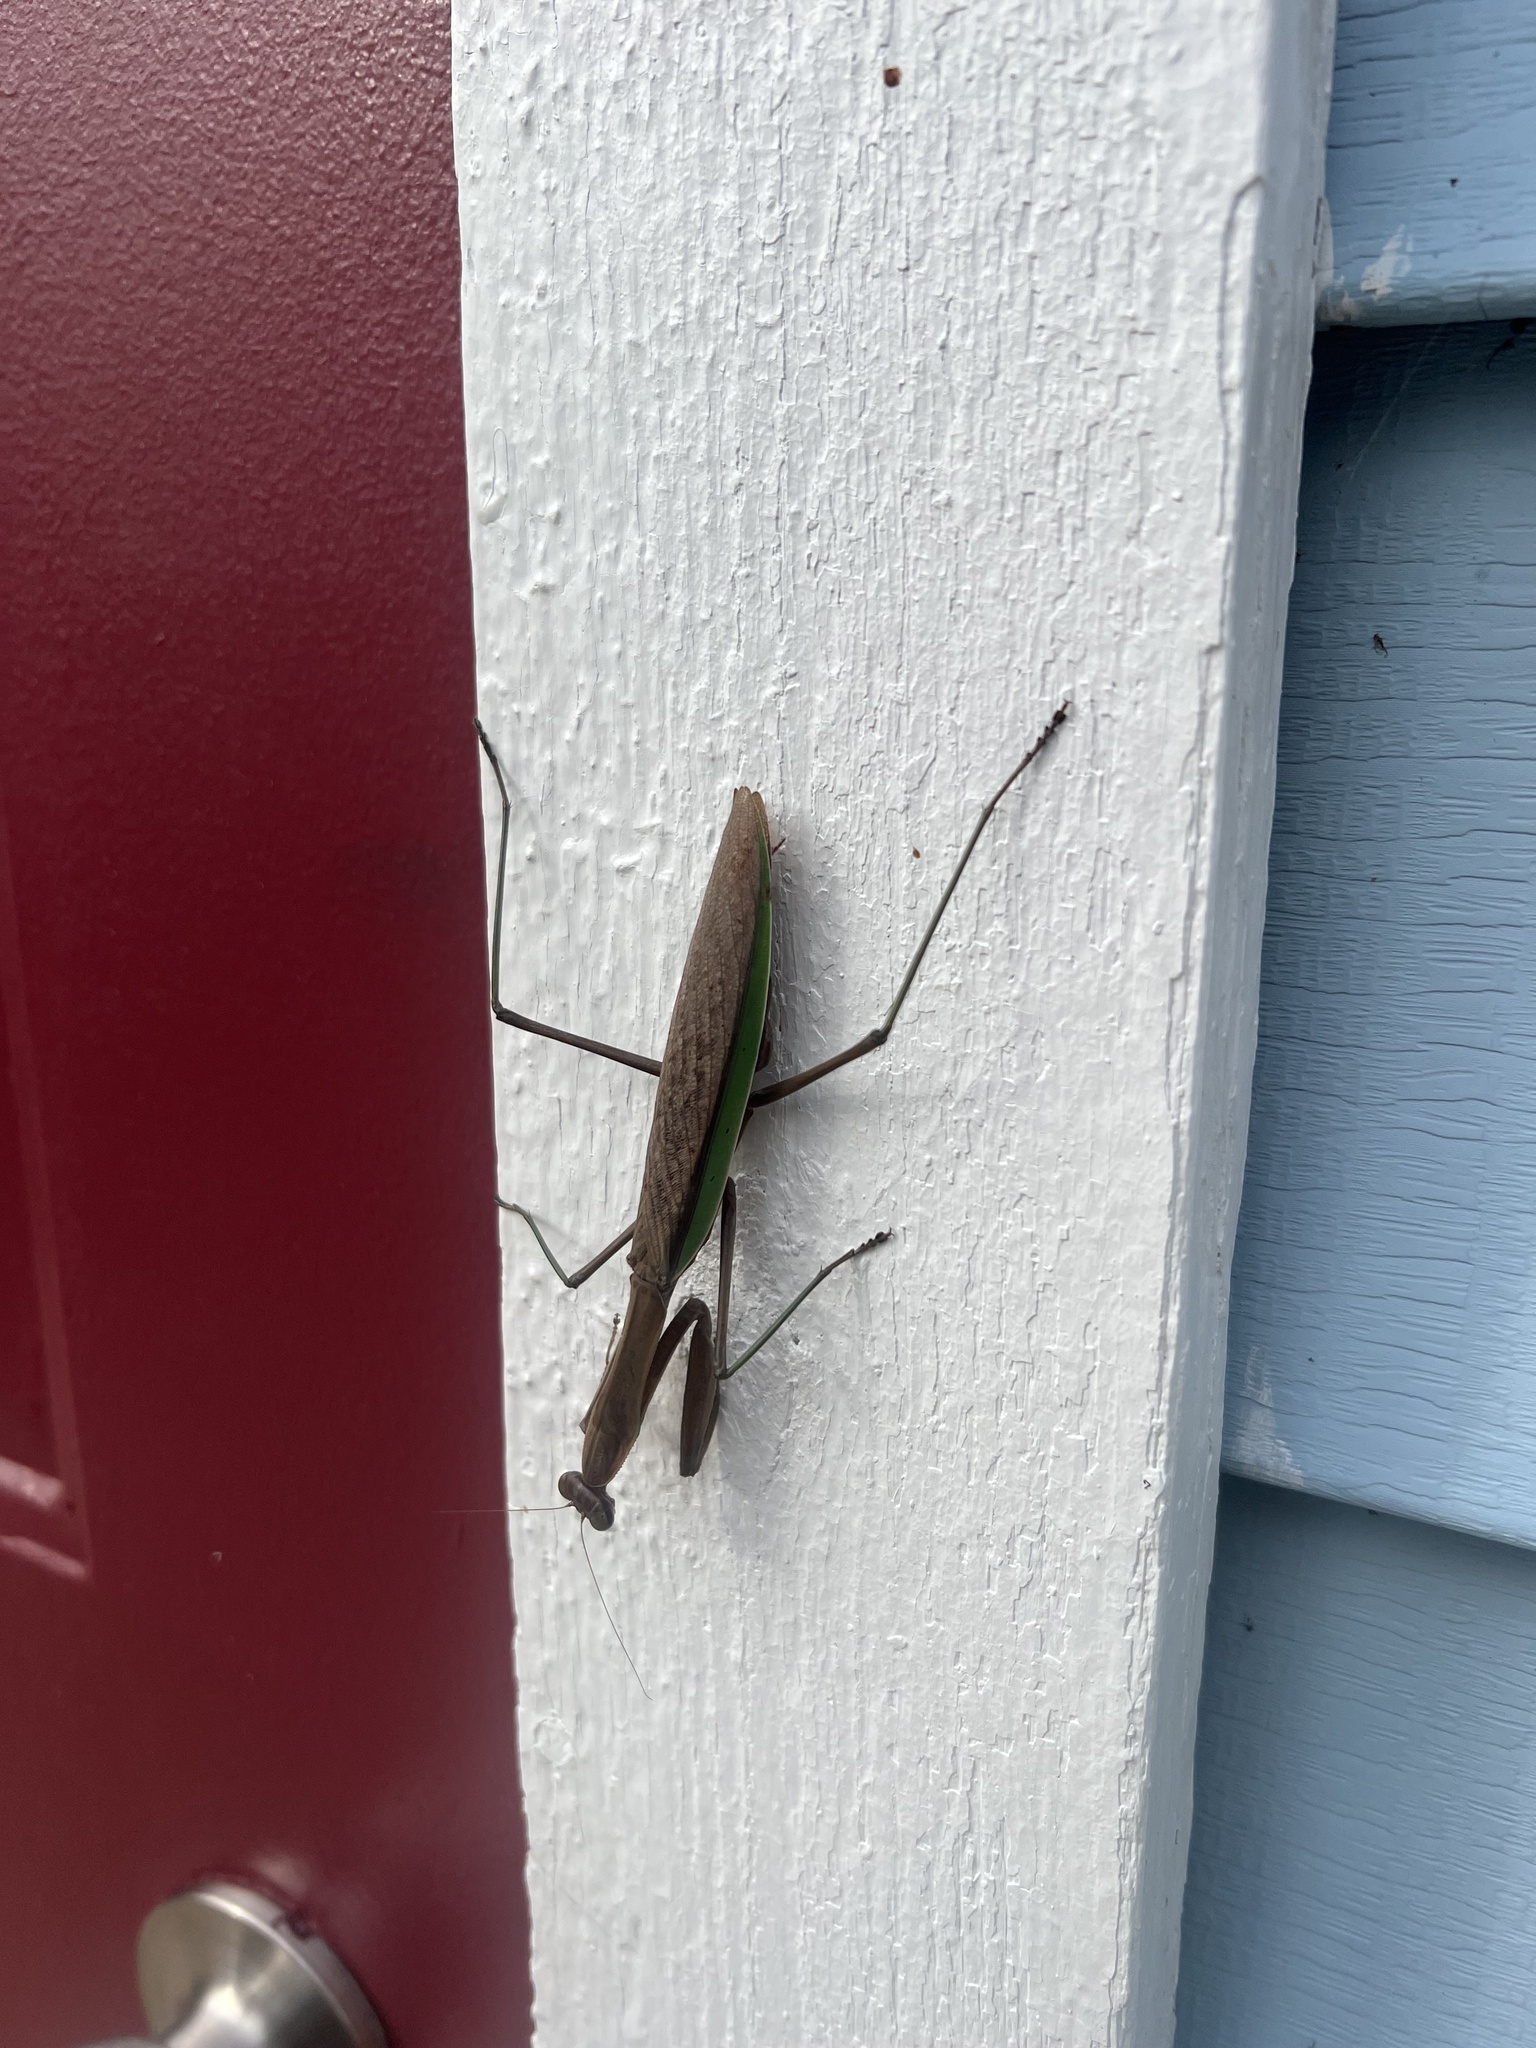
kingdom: Animalia
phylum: Arthropoda
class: Insecta
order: Mantodea
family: Mantidae
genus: Tenodera
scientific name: Tenodera sinensis
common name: Chinese mantis
